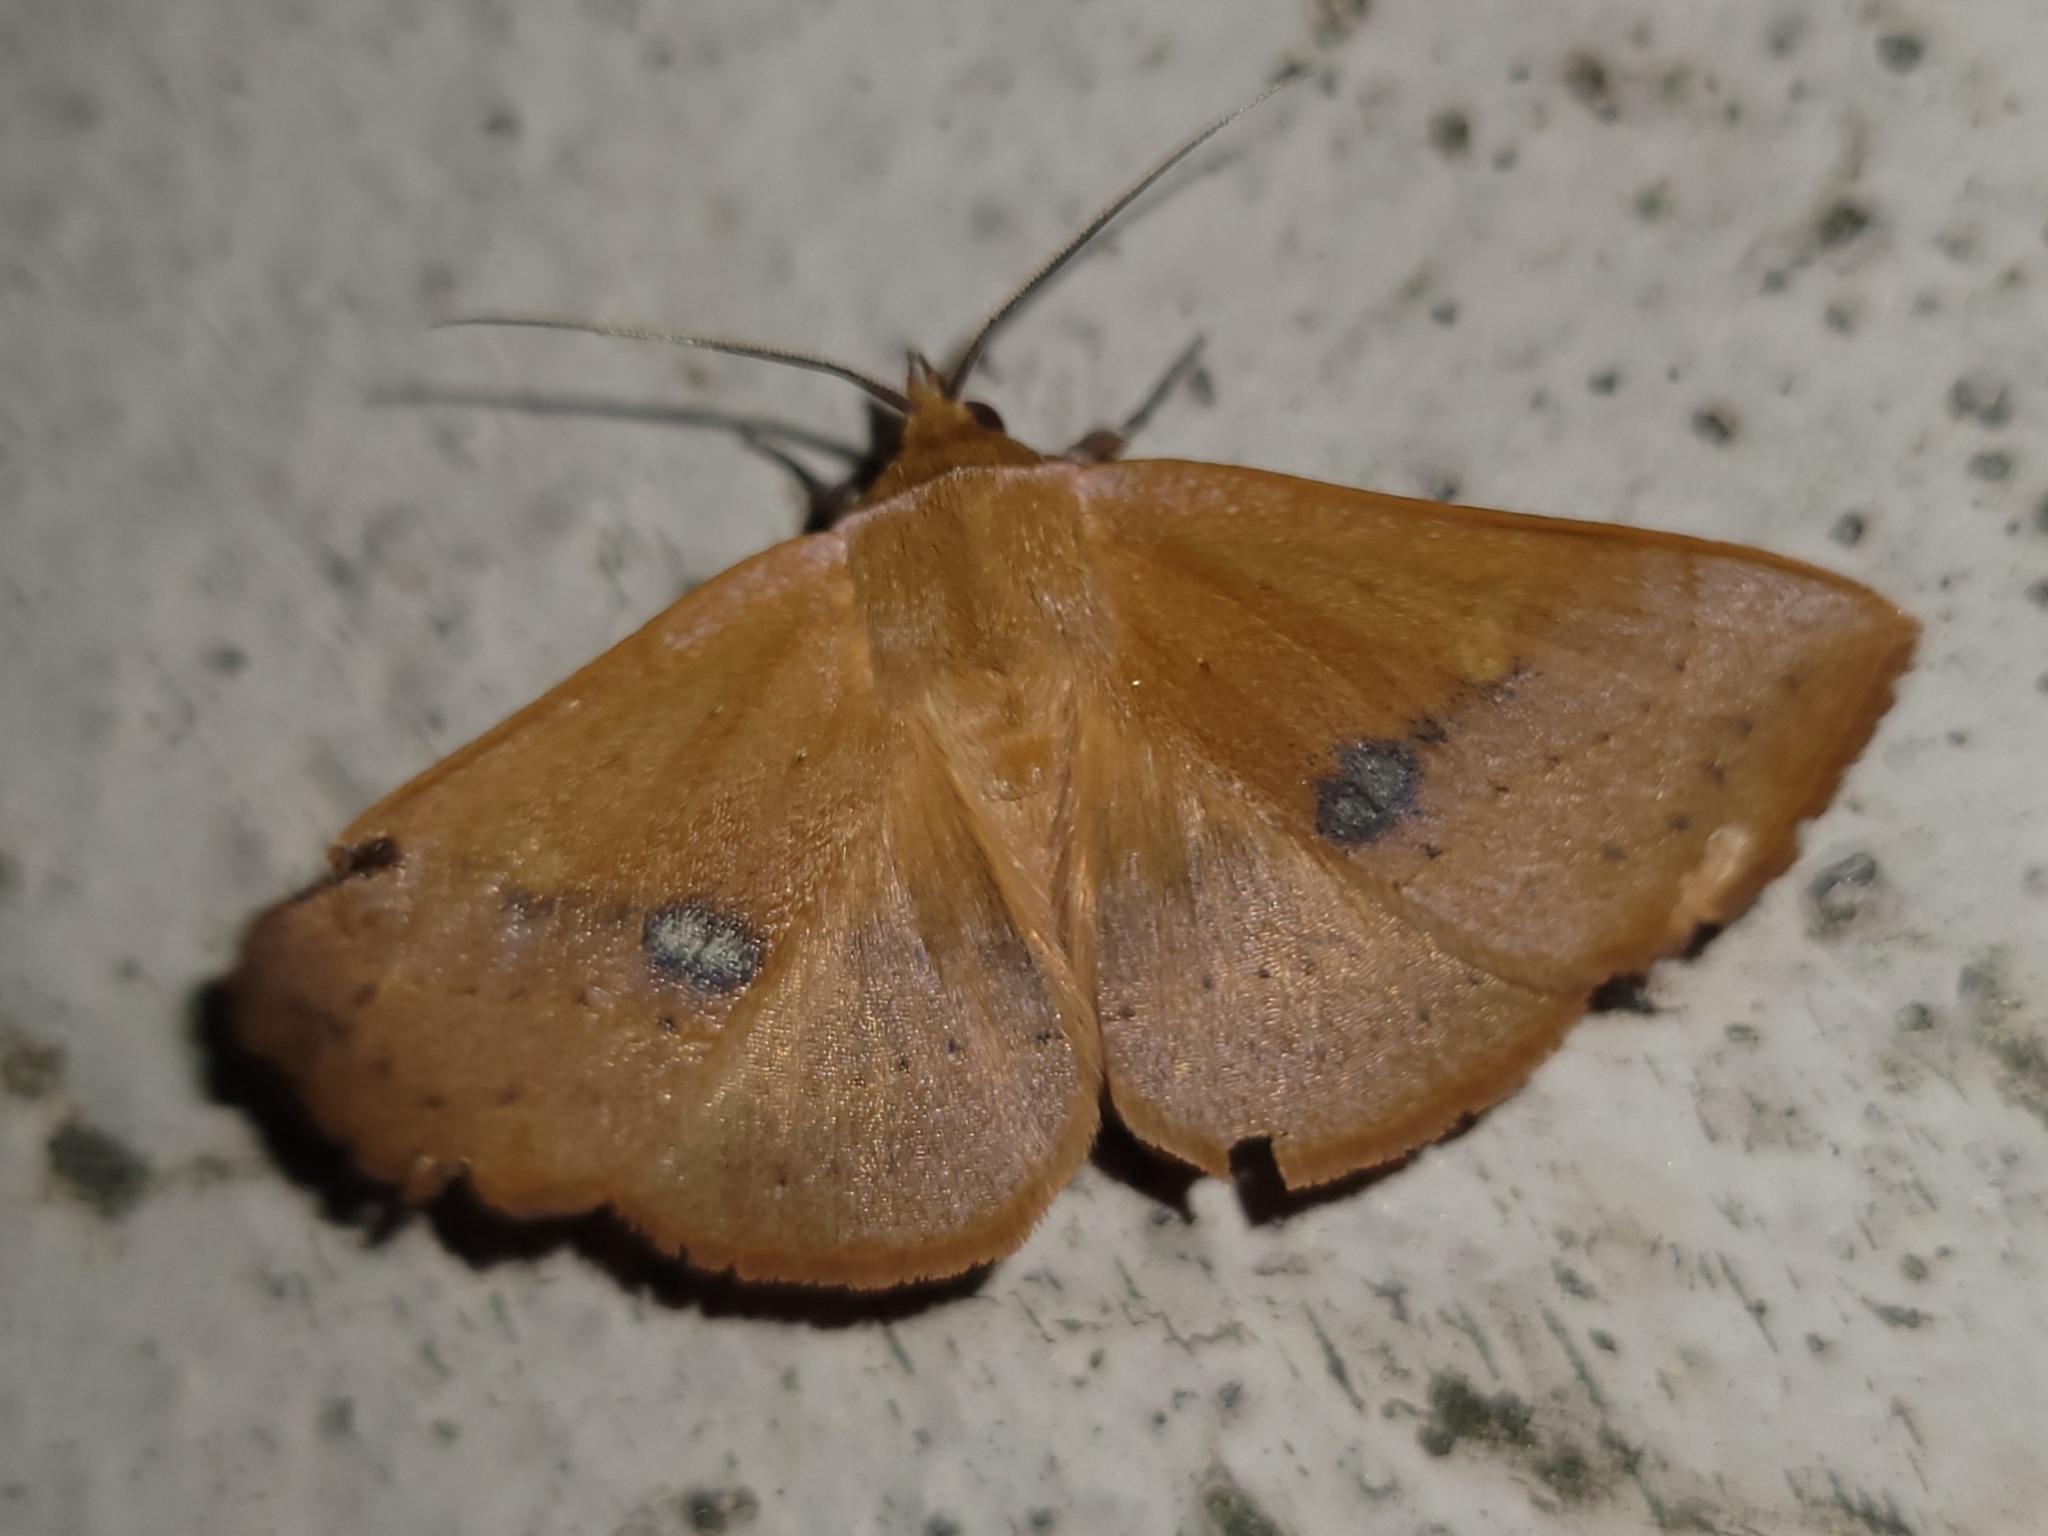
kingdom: Animalia
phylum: Arthropoda
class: Insecta
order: Lepidoptera
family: Erebidae
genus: Panopoda
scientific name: Panopoda repanda
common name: Orange panopoda
